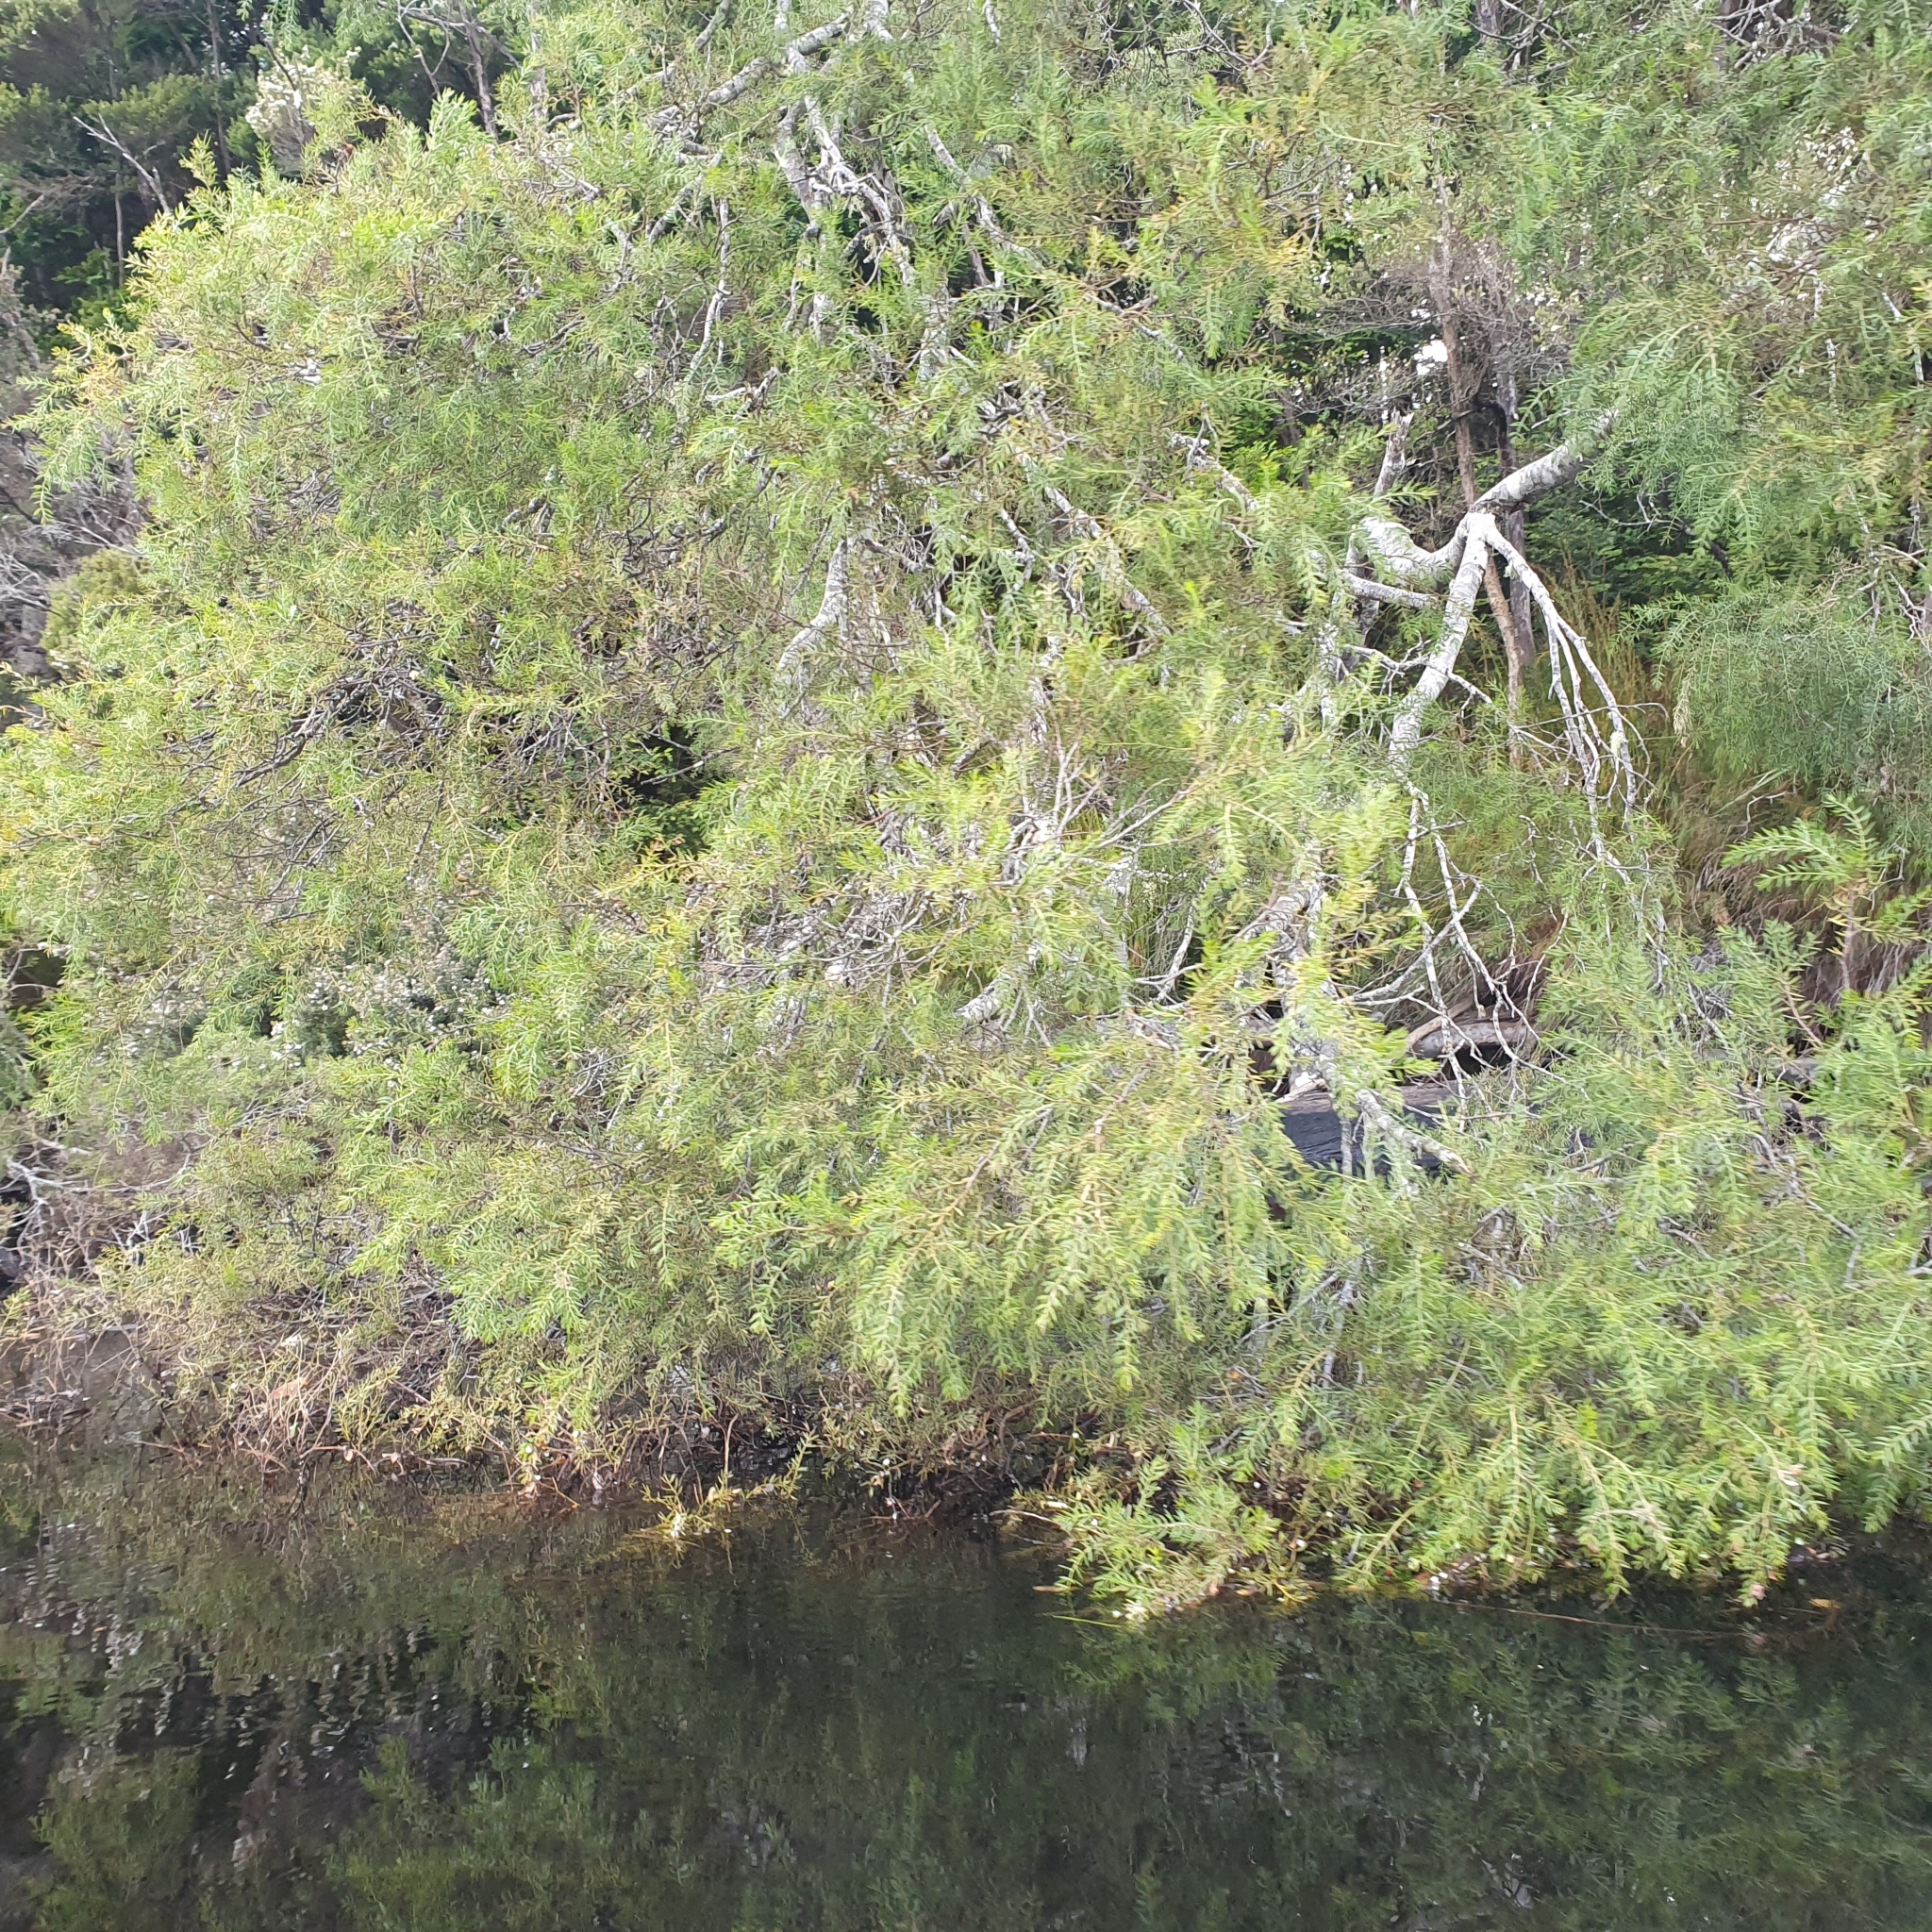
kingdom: Plantae
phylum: Tracheophyta
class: Magnoliopsida
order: Fabales
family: Fabaceae
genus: Acacia
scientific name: Acacia verticillata
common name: Prickly moses
